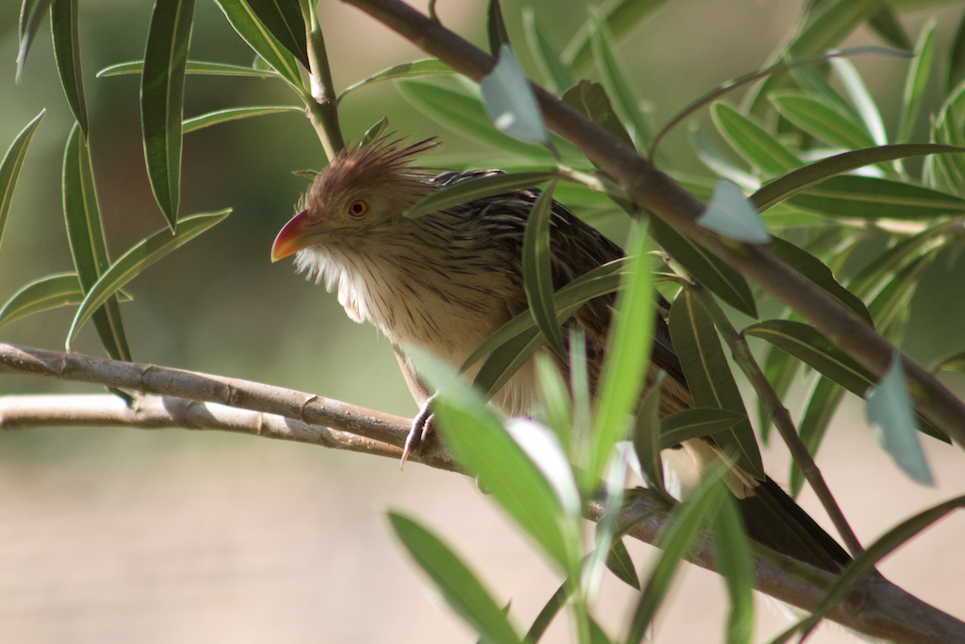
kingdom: Animalia
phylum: Chordata
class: Aves
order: Cuculiformes
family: Cuculidae
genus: Guira
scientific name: Guira guira
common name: Guira cuckoo
